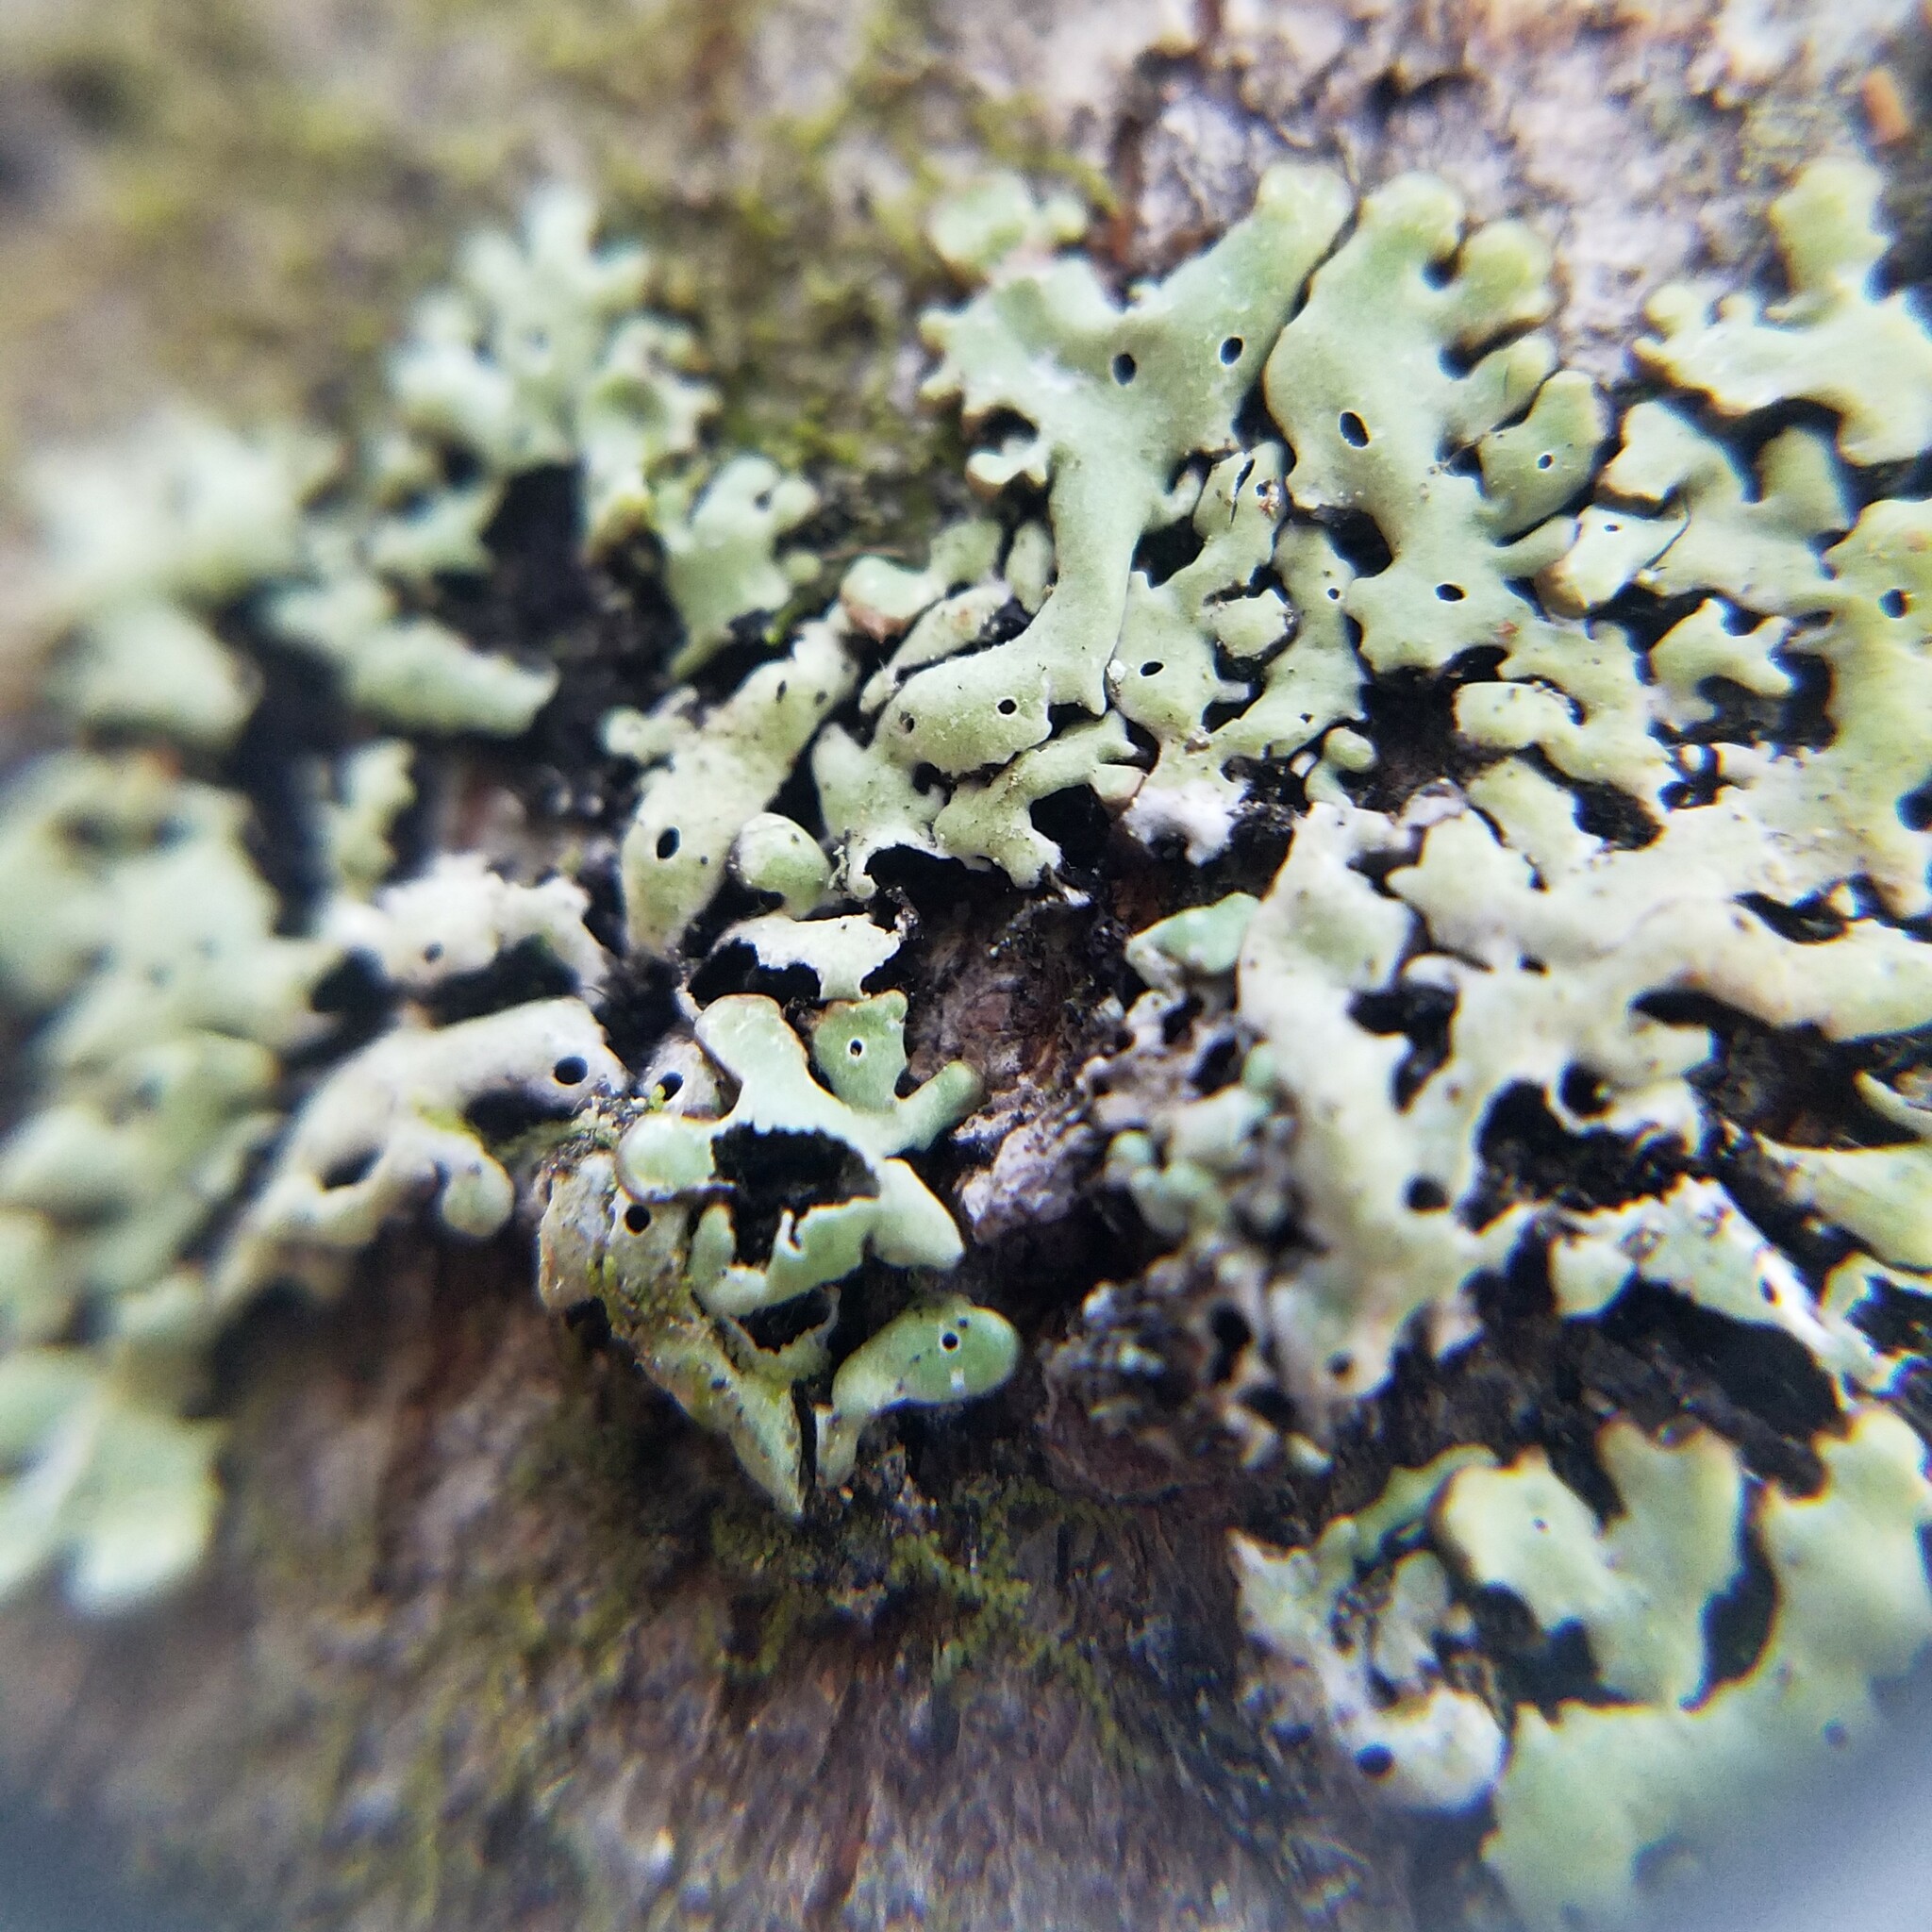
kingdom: Fungi
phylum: Ascomycota
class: Lecanoromycetes
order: Lecanorales
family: Parmeliaceae
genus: Menegazzia
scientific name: Menegazzia subsimilis
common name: Tree flute lichen
